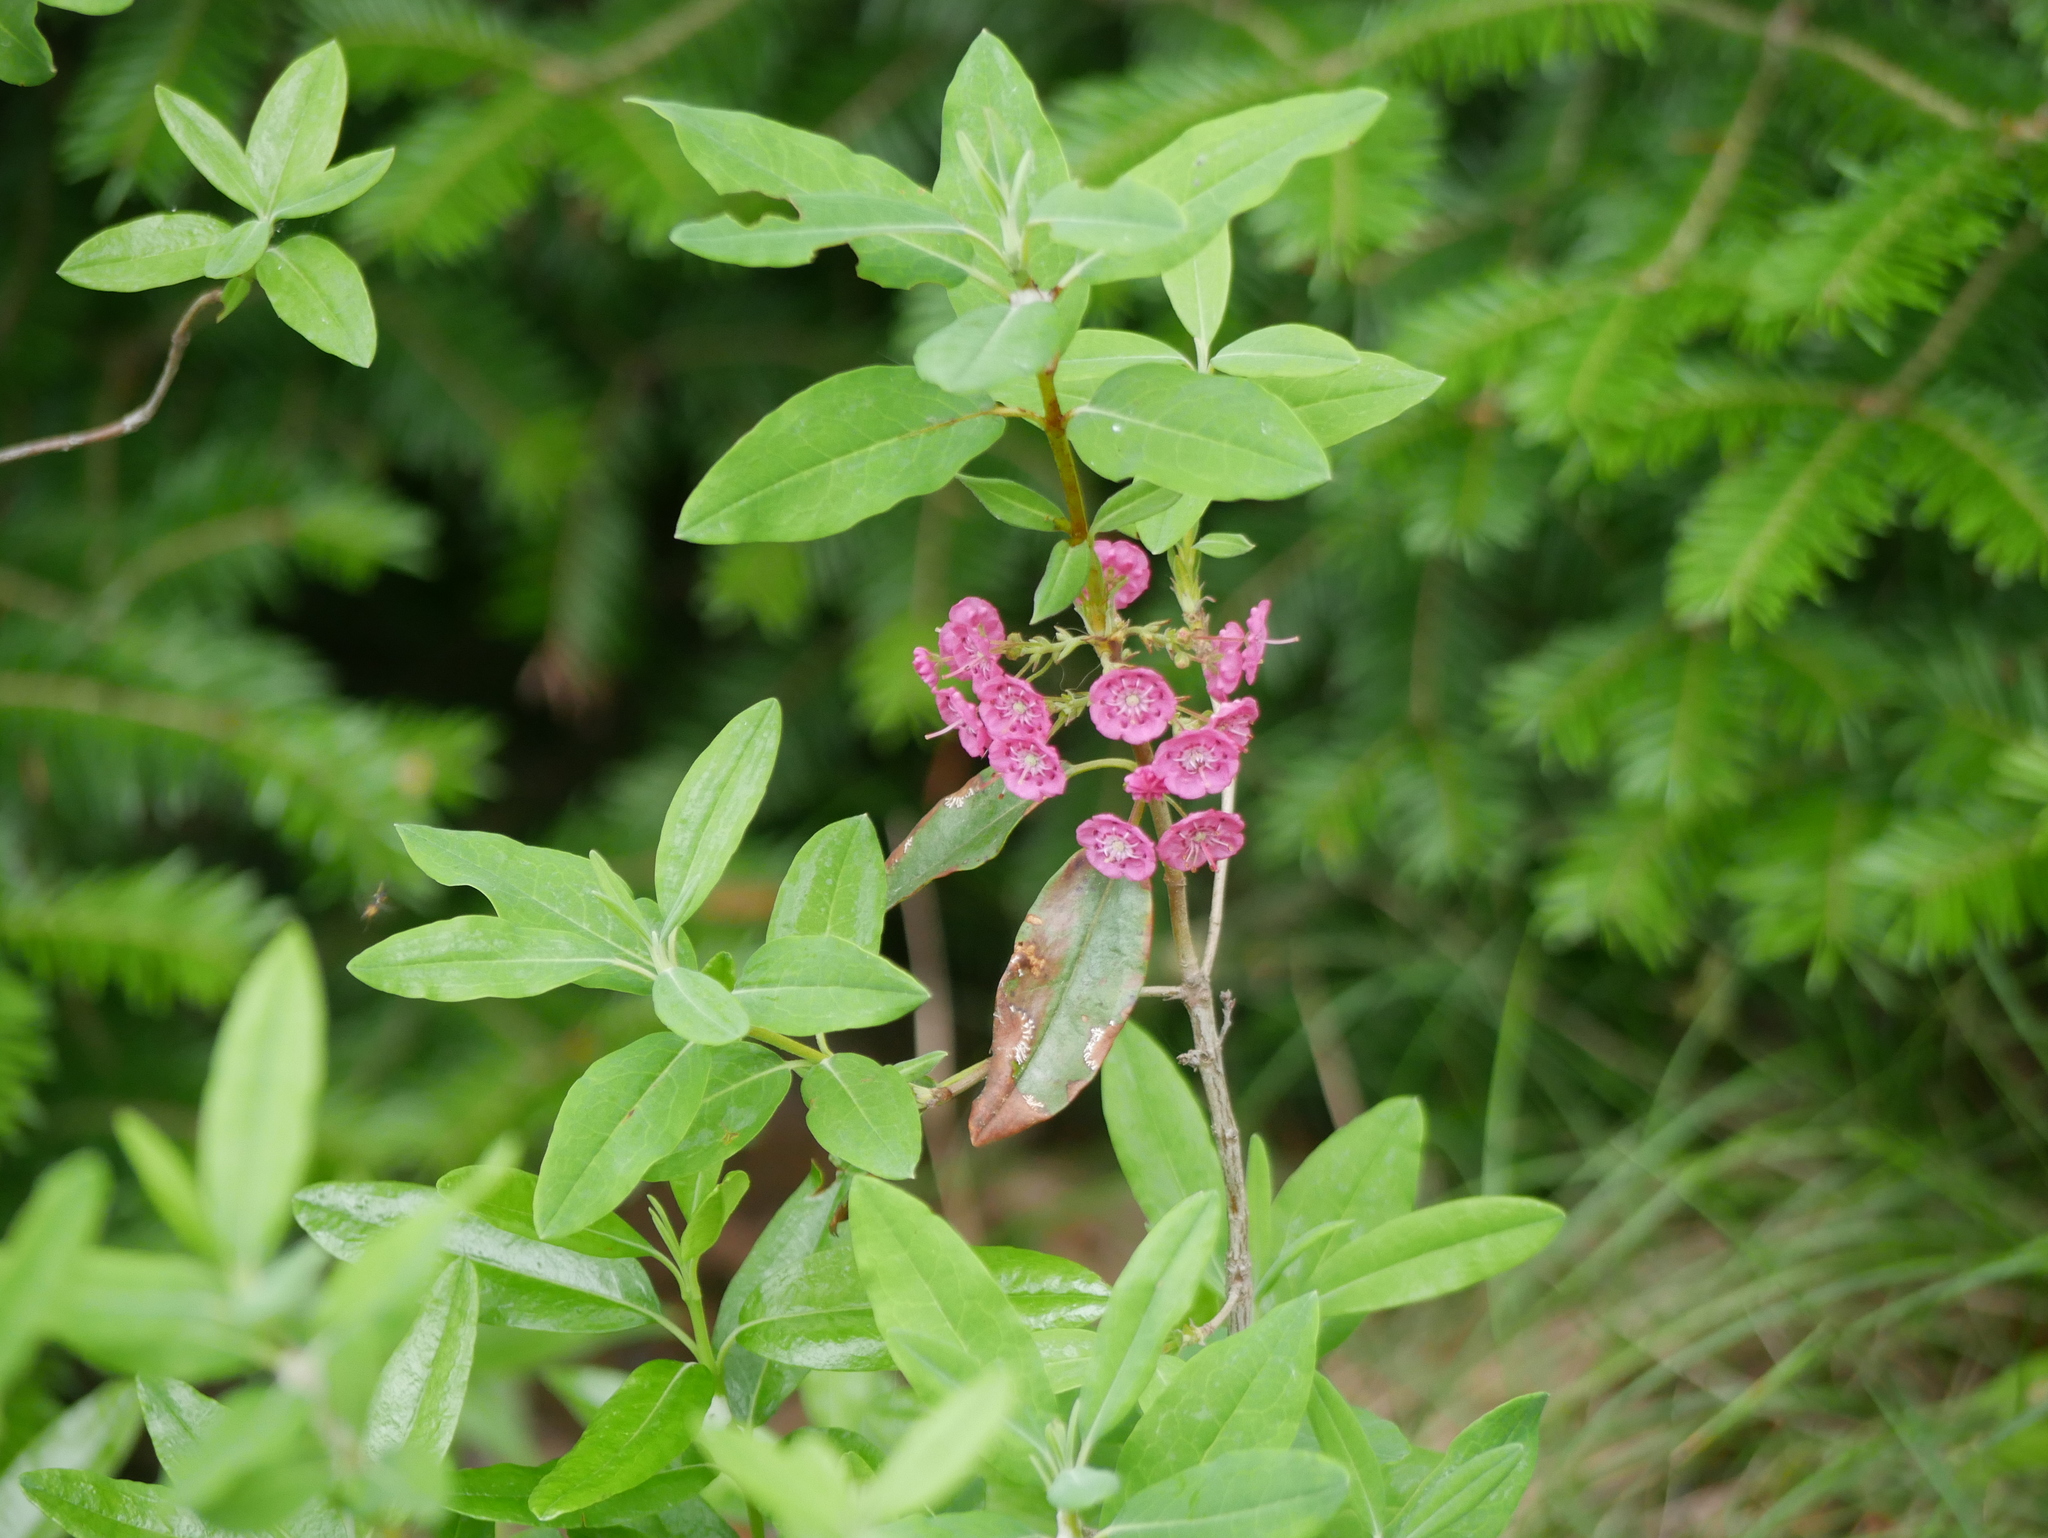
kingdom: Plantae
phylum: Tracheophyta
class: Magnoliopsida
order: Ericales
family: Ericaceae
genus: Kalmia
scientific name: Kalmia angustifolia
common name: Sheep-laurel
